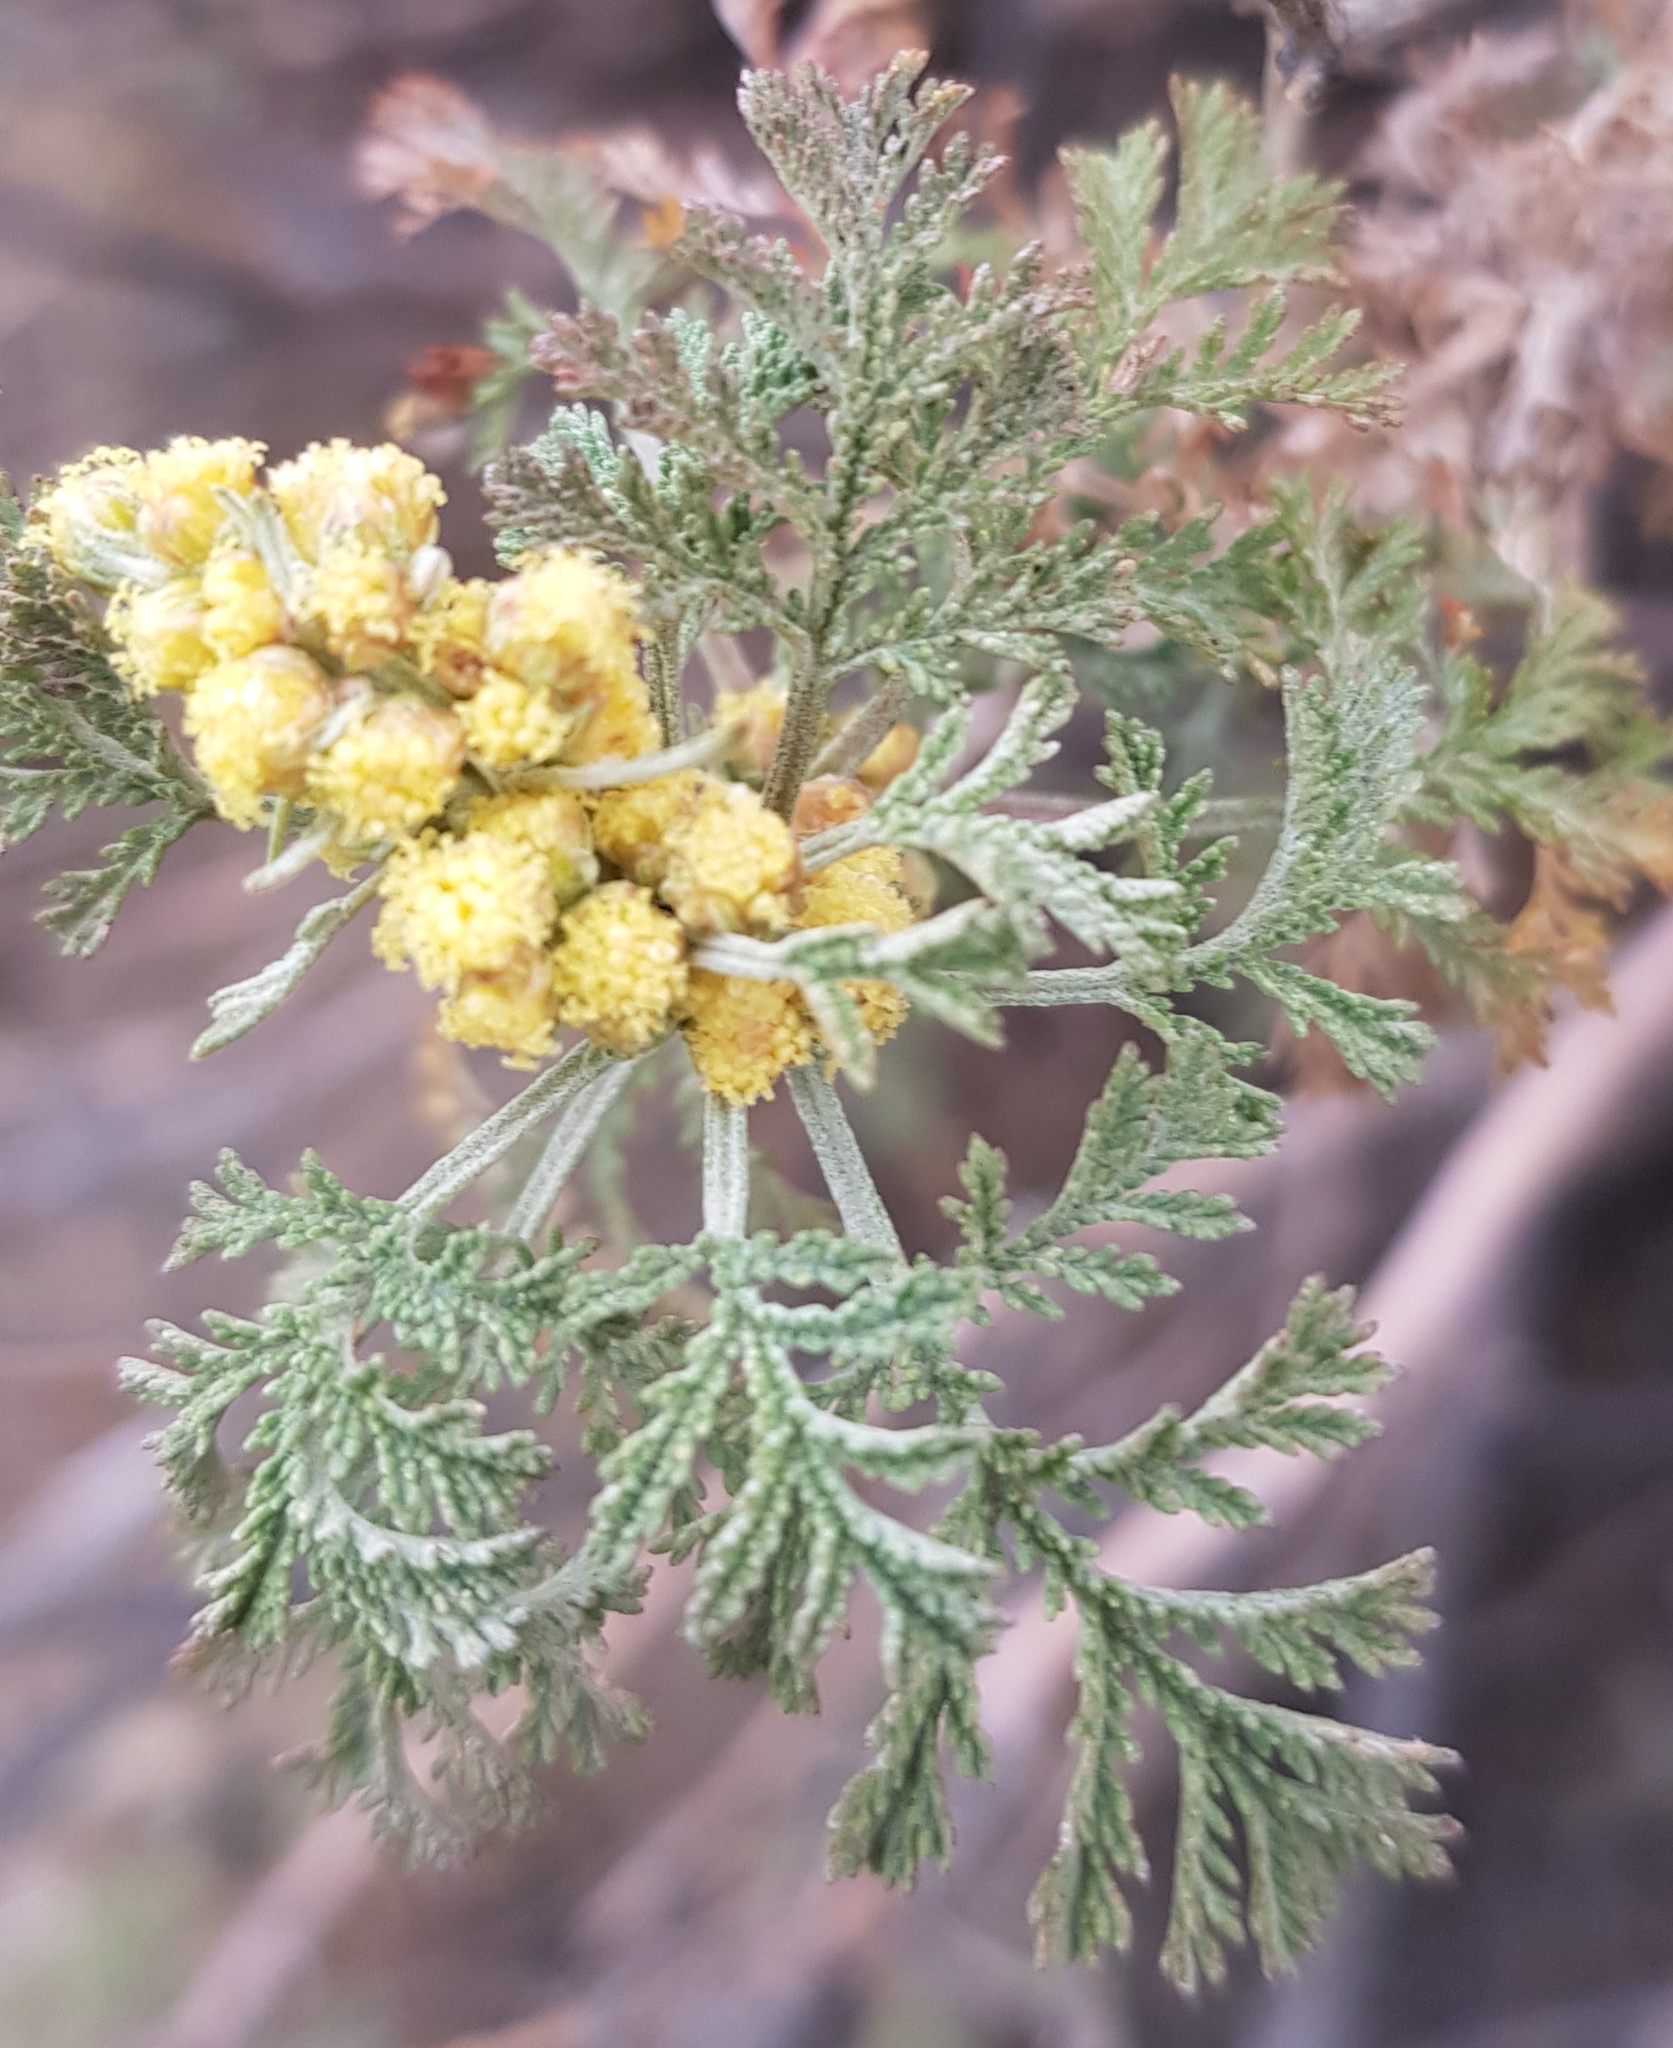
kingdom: Plantae
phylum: Tracheophyta
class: Magnoliopsida
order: Asterales
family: Asteraceae
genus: Artemisia
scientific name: Artemisia gmelinii
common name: Gmelin's wormwood
